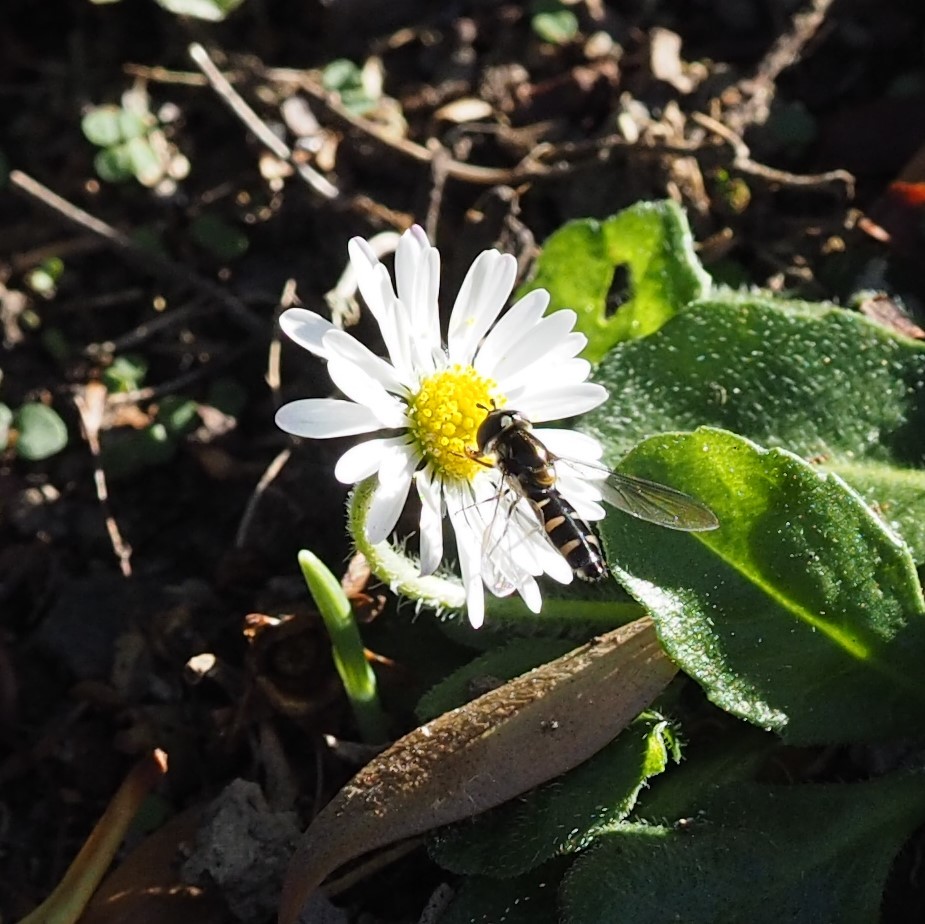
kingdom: Animalia
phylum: Arthropoda
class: Insecta
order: Diptera
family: Syrphidae
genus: Melangyna
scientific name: Melangyna novaezelandiae
